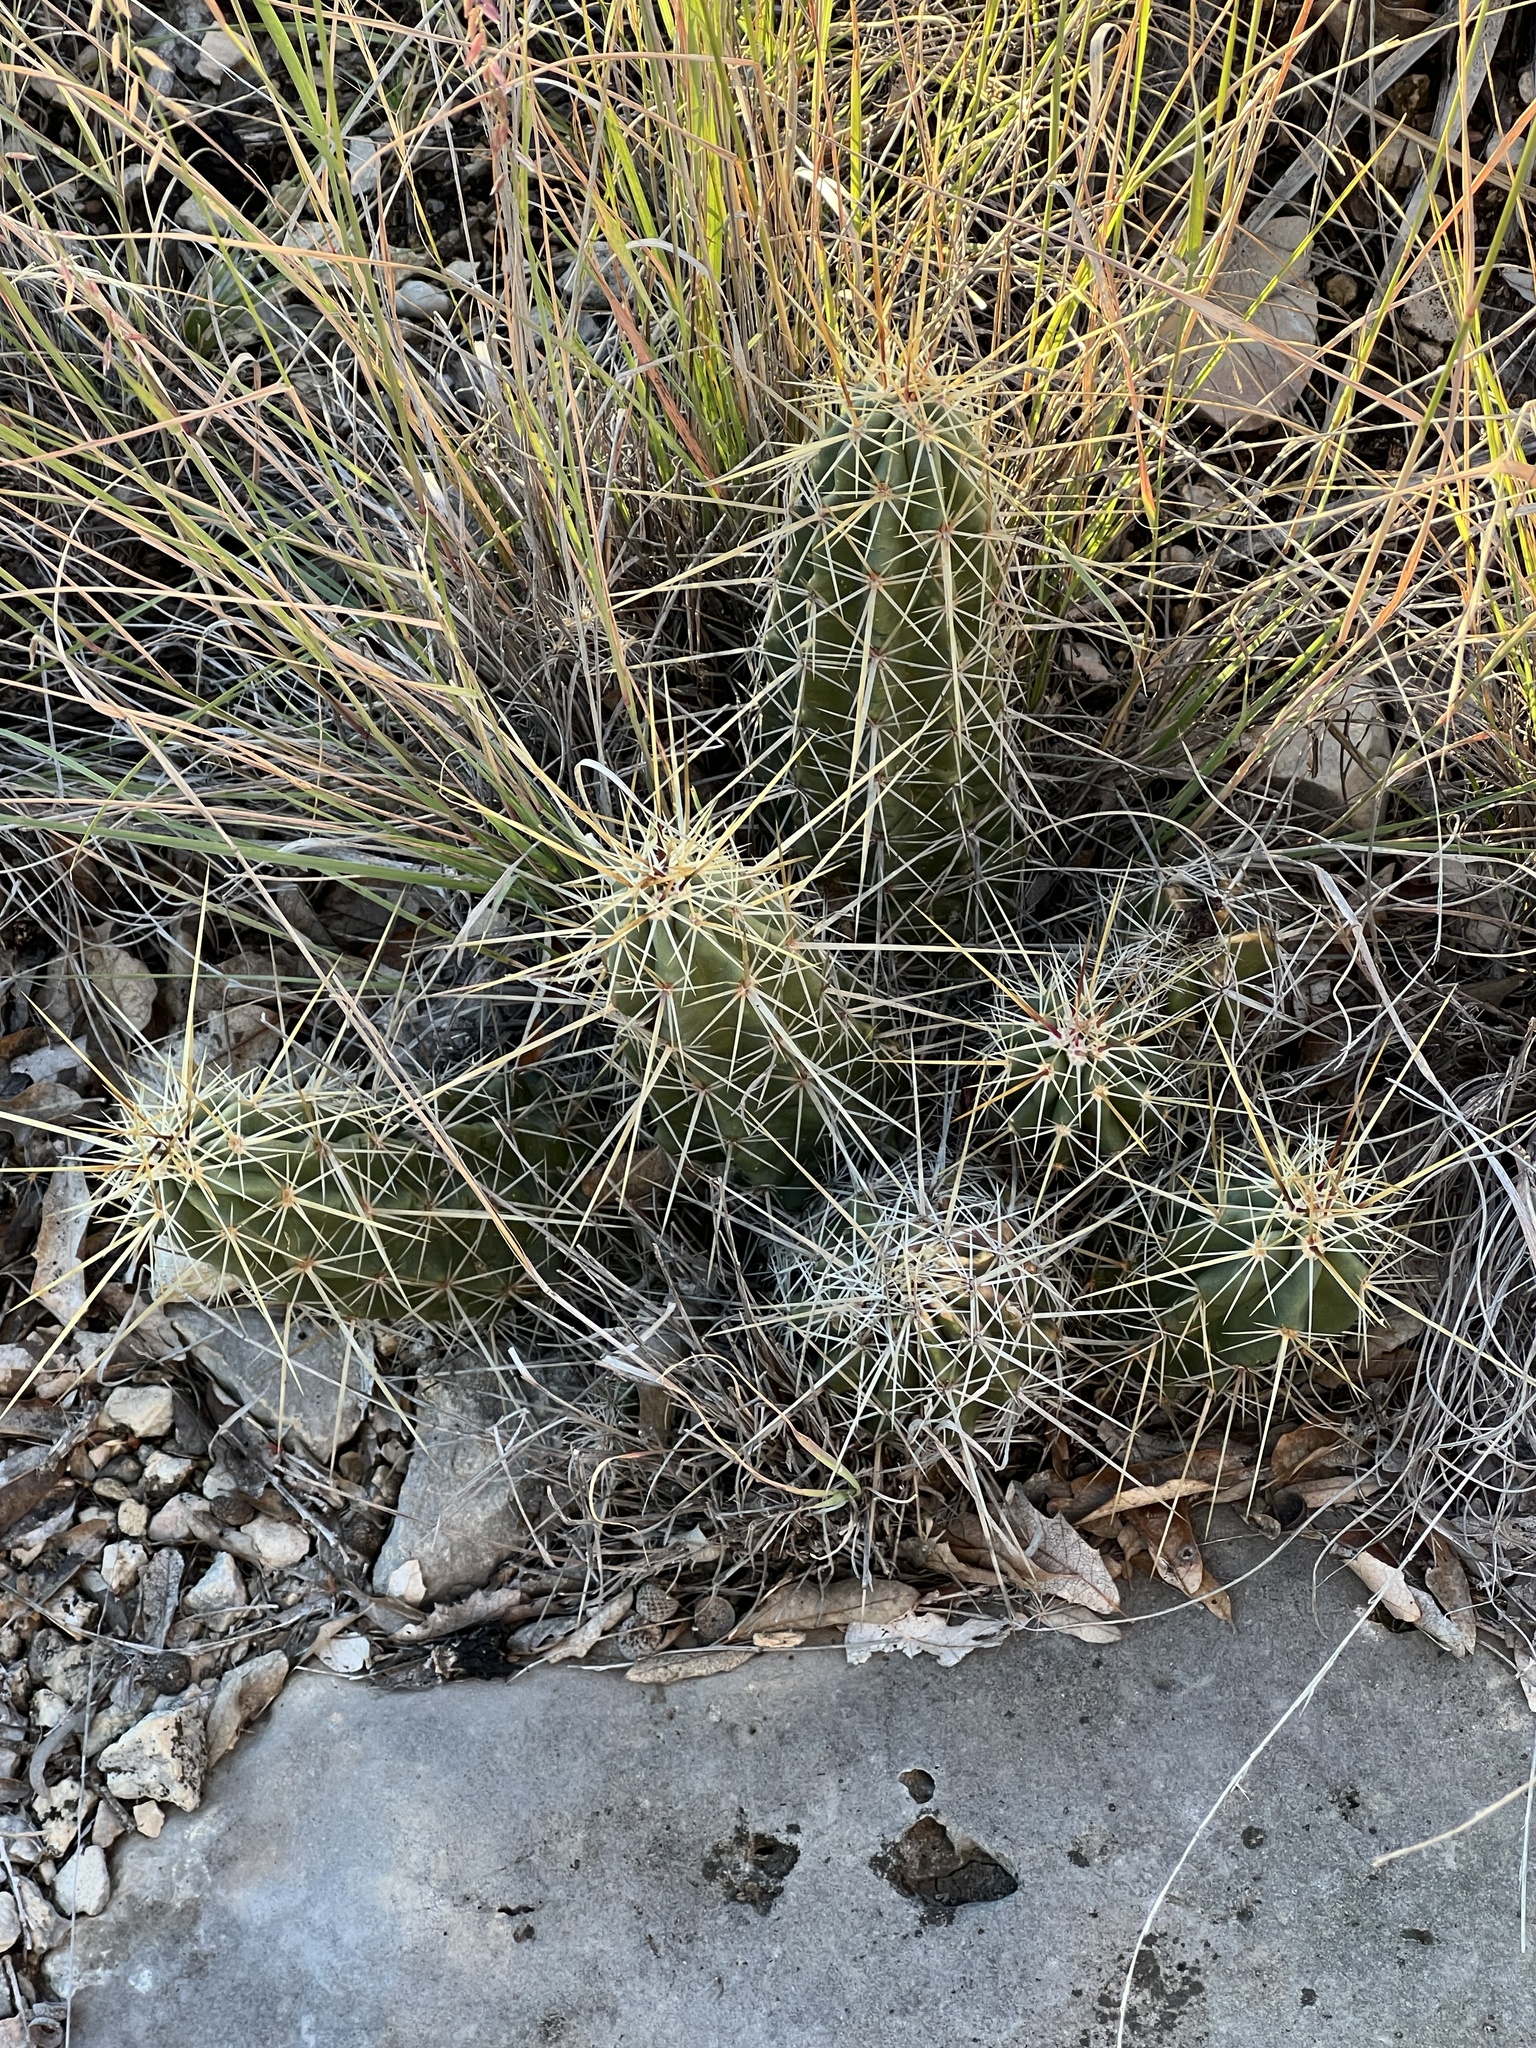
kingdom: Plantae
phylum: Tracheophyta
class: Magnoliopsida
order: Caryophyllales
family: Cactaceae
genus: Echinocereus
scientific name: Echinocereus enneacanthus
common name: Pitaya
